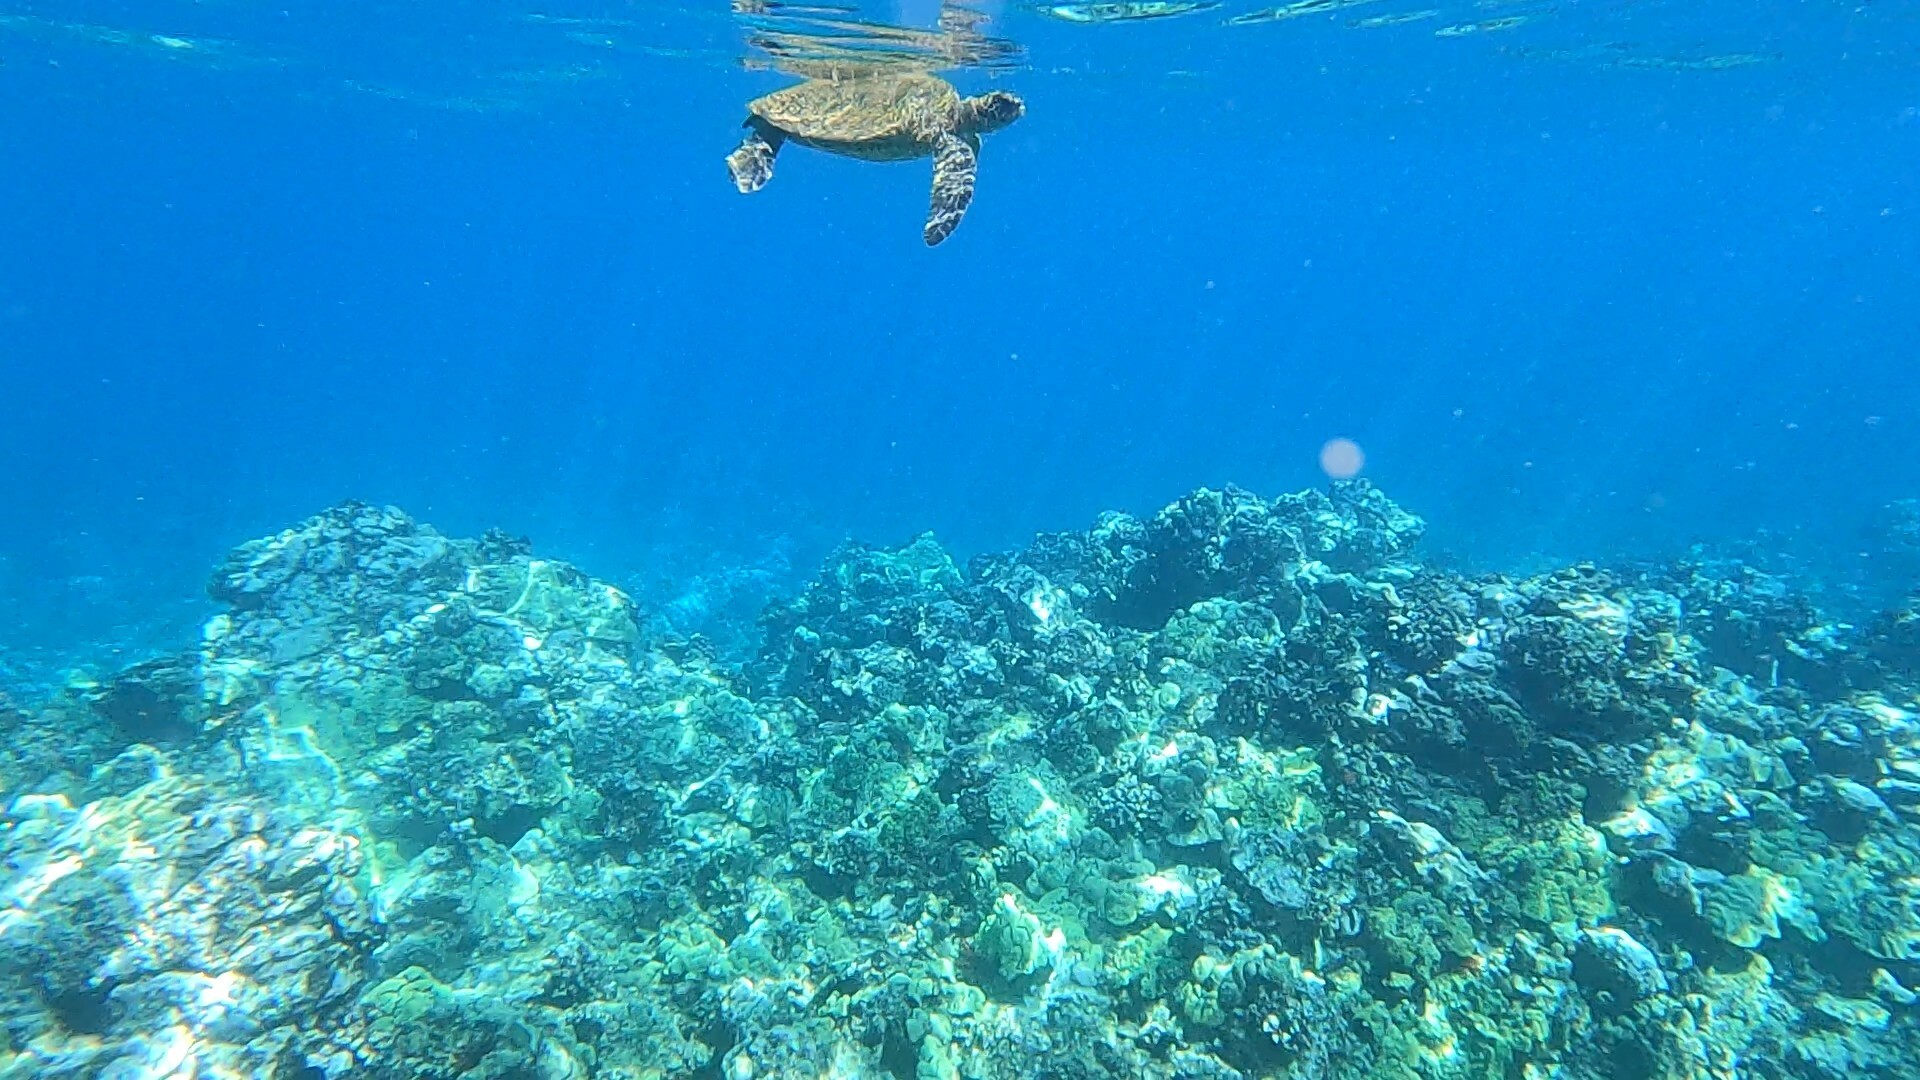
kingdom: Animalia
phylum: Chordata
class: Testudines
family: Cheloniidae
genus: Chelonia
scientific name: Chelonia mydas
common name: Green turtle
